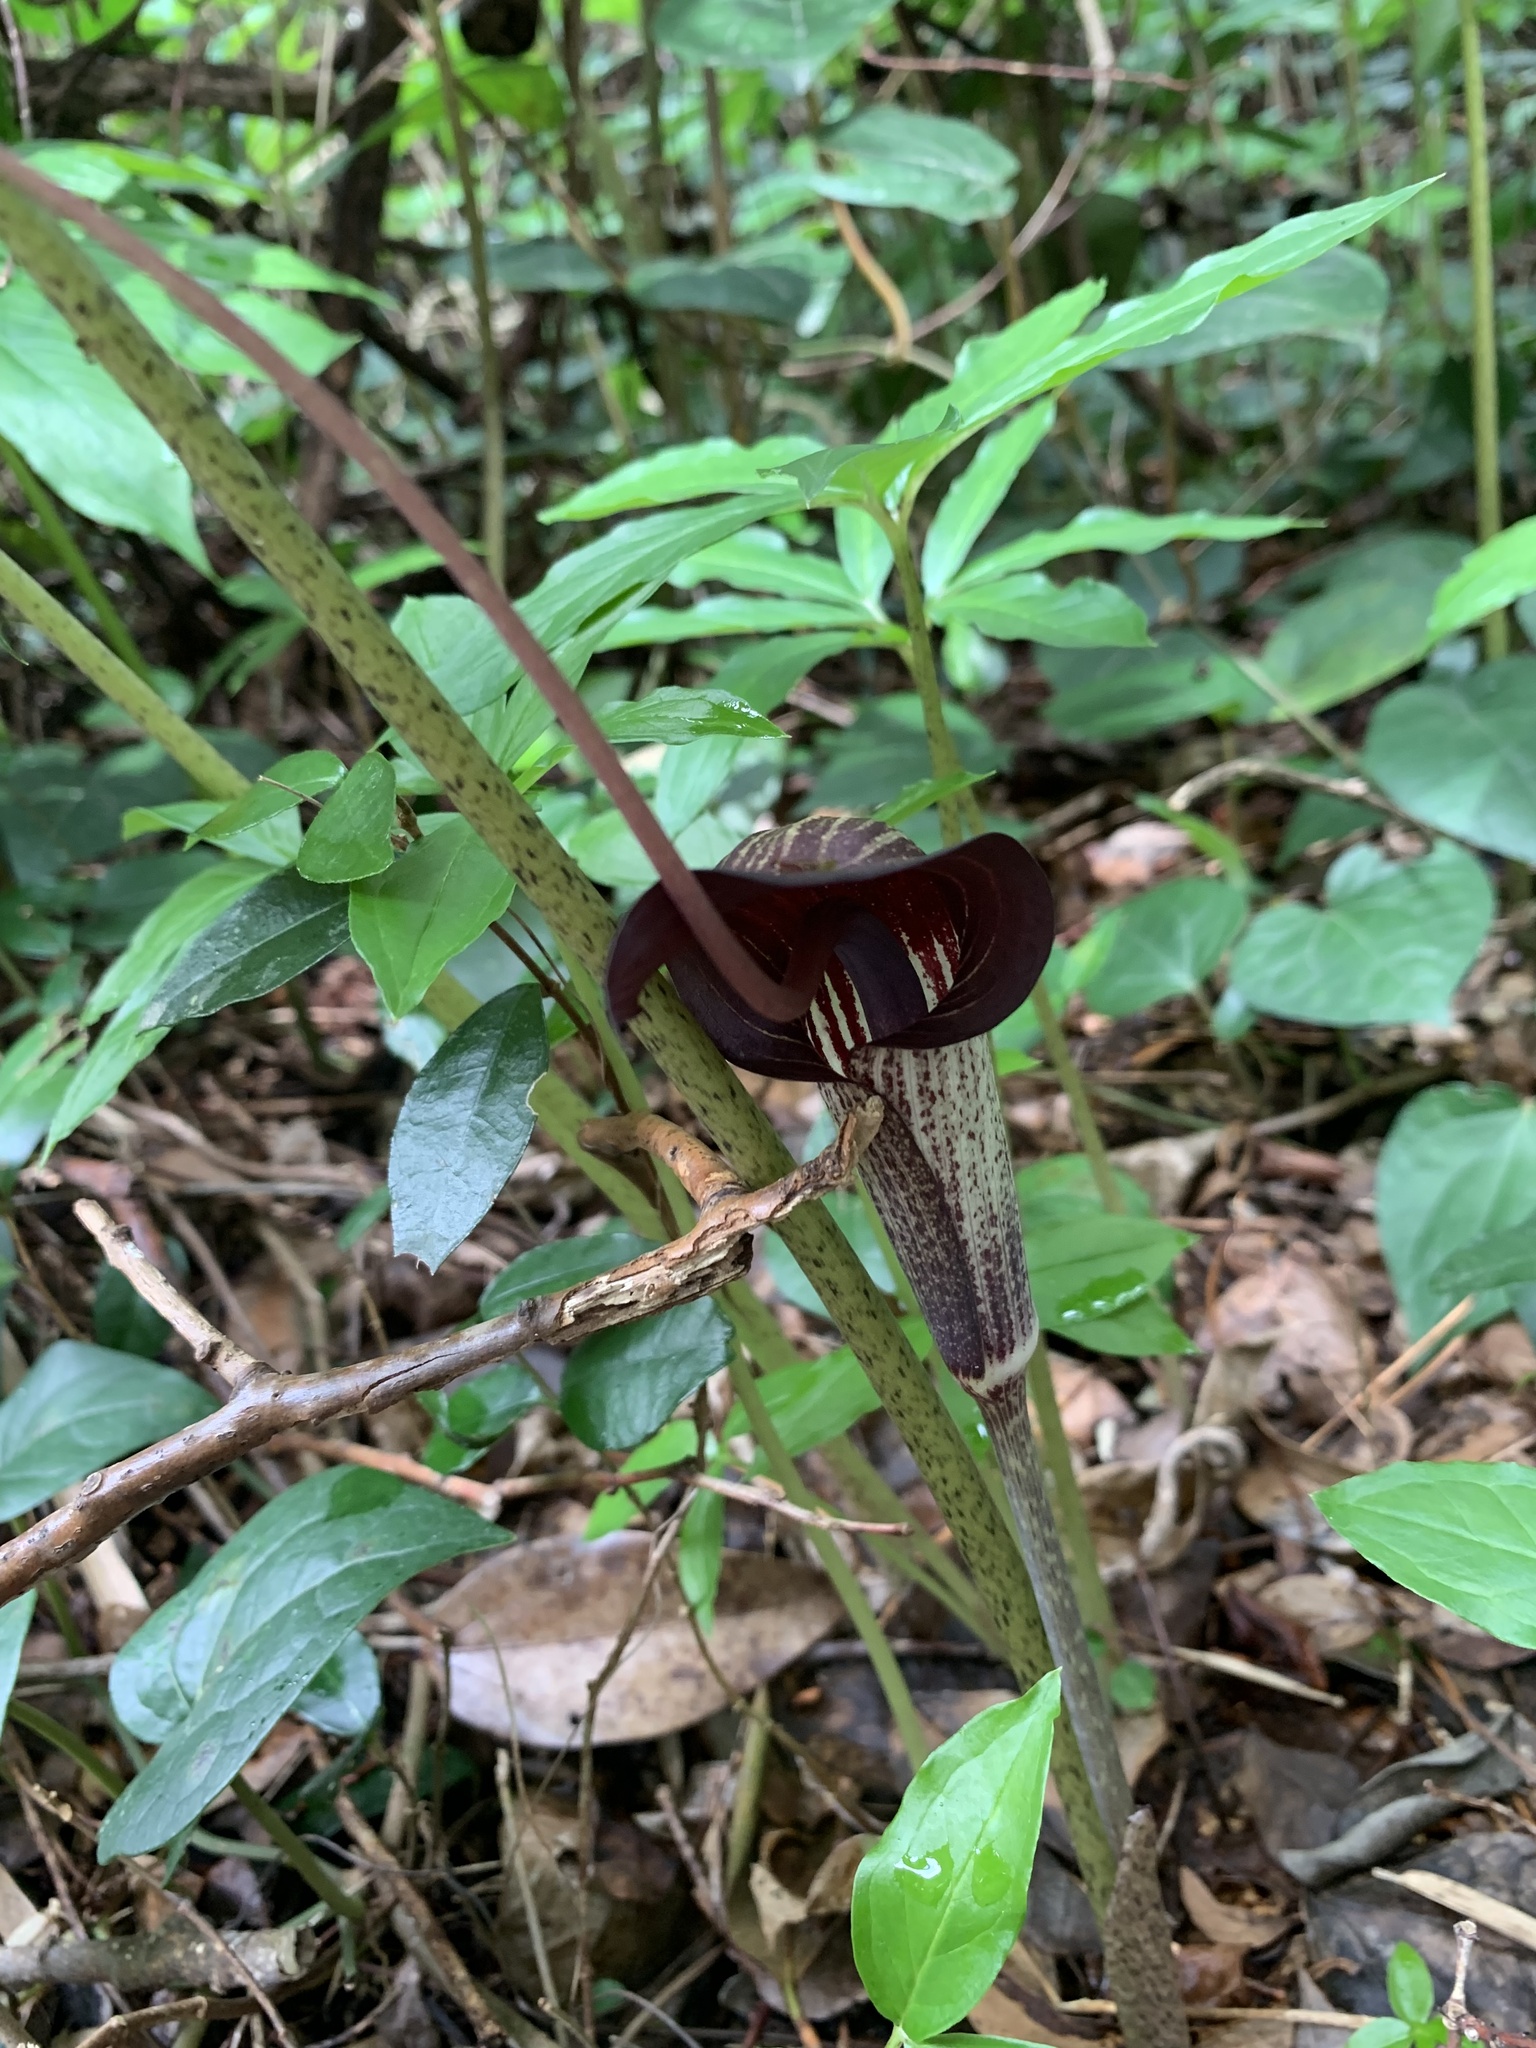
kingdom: Plantae
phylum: Tracheophyta
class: Liliopsida
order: Alismatales
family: Araceae
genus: Arisaema
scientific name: Arisaema thunbergii
